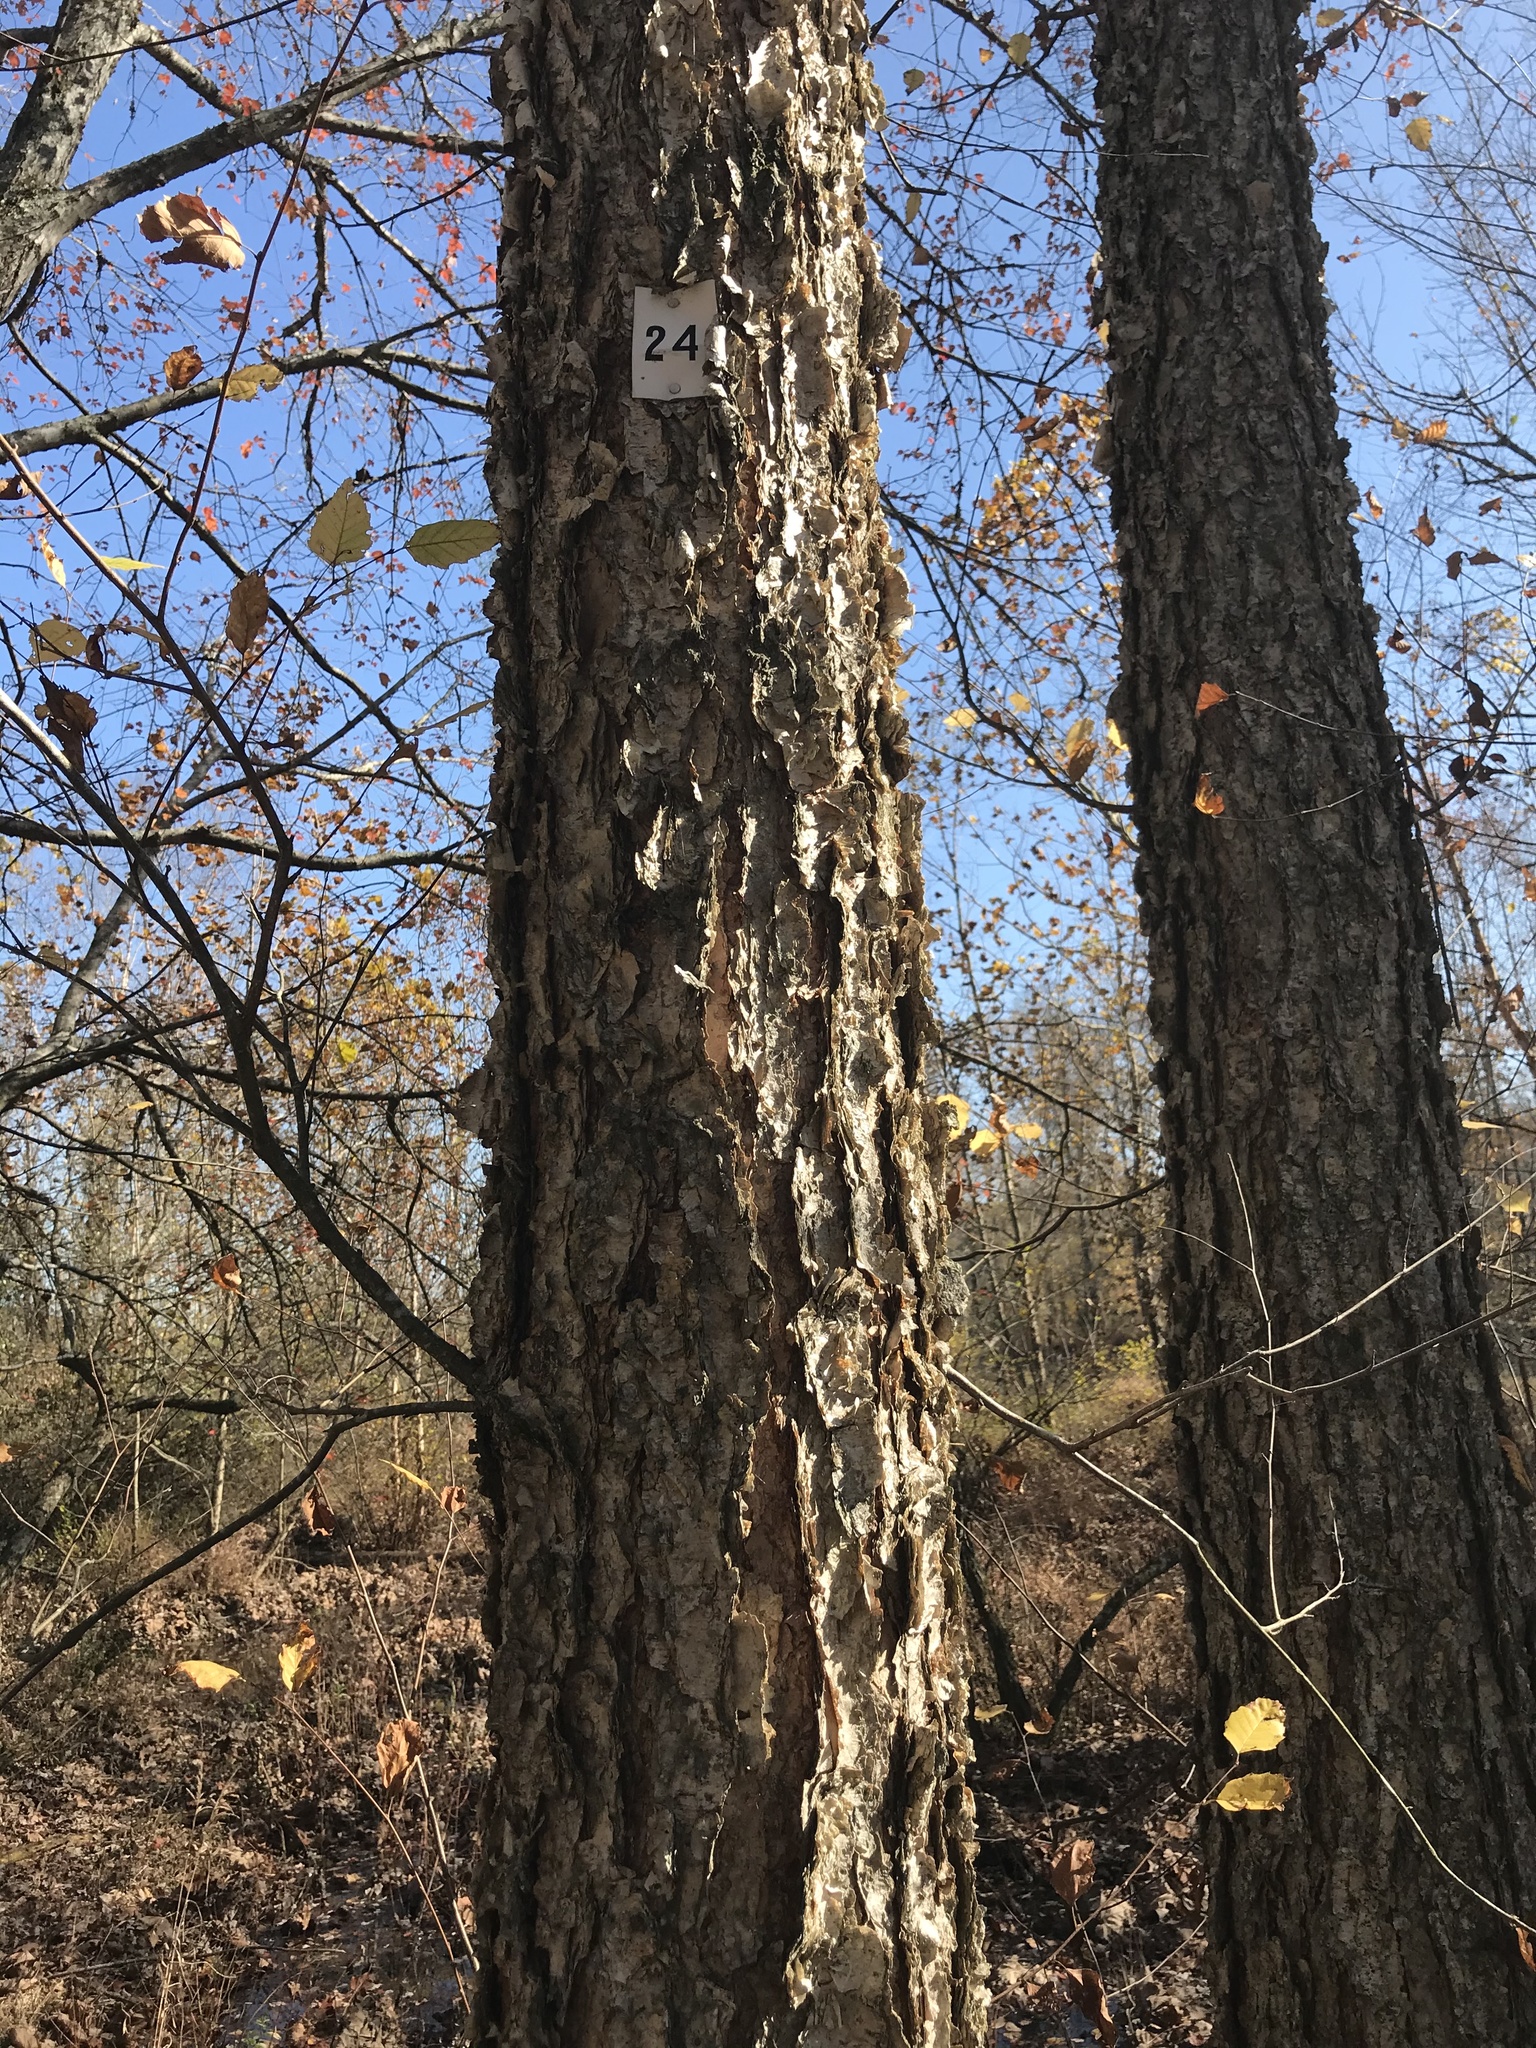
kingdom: Plantae
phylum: Tracheophyta
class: Magnoliopsida
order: Fagales
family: Betulaceae
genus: Betula
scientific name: Betula nigra
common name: Black birch
